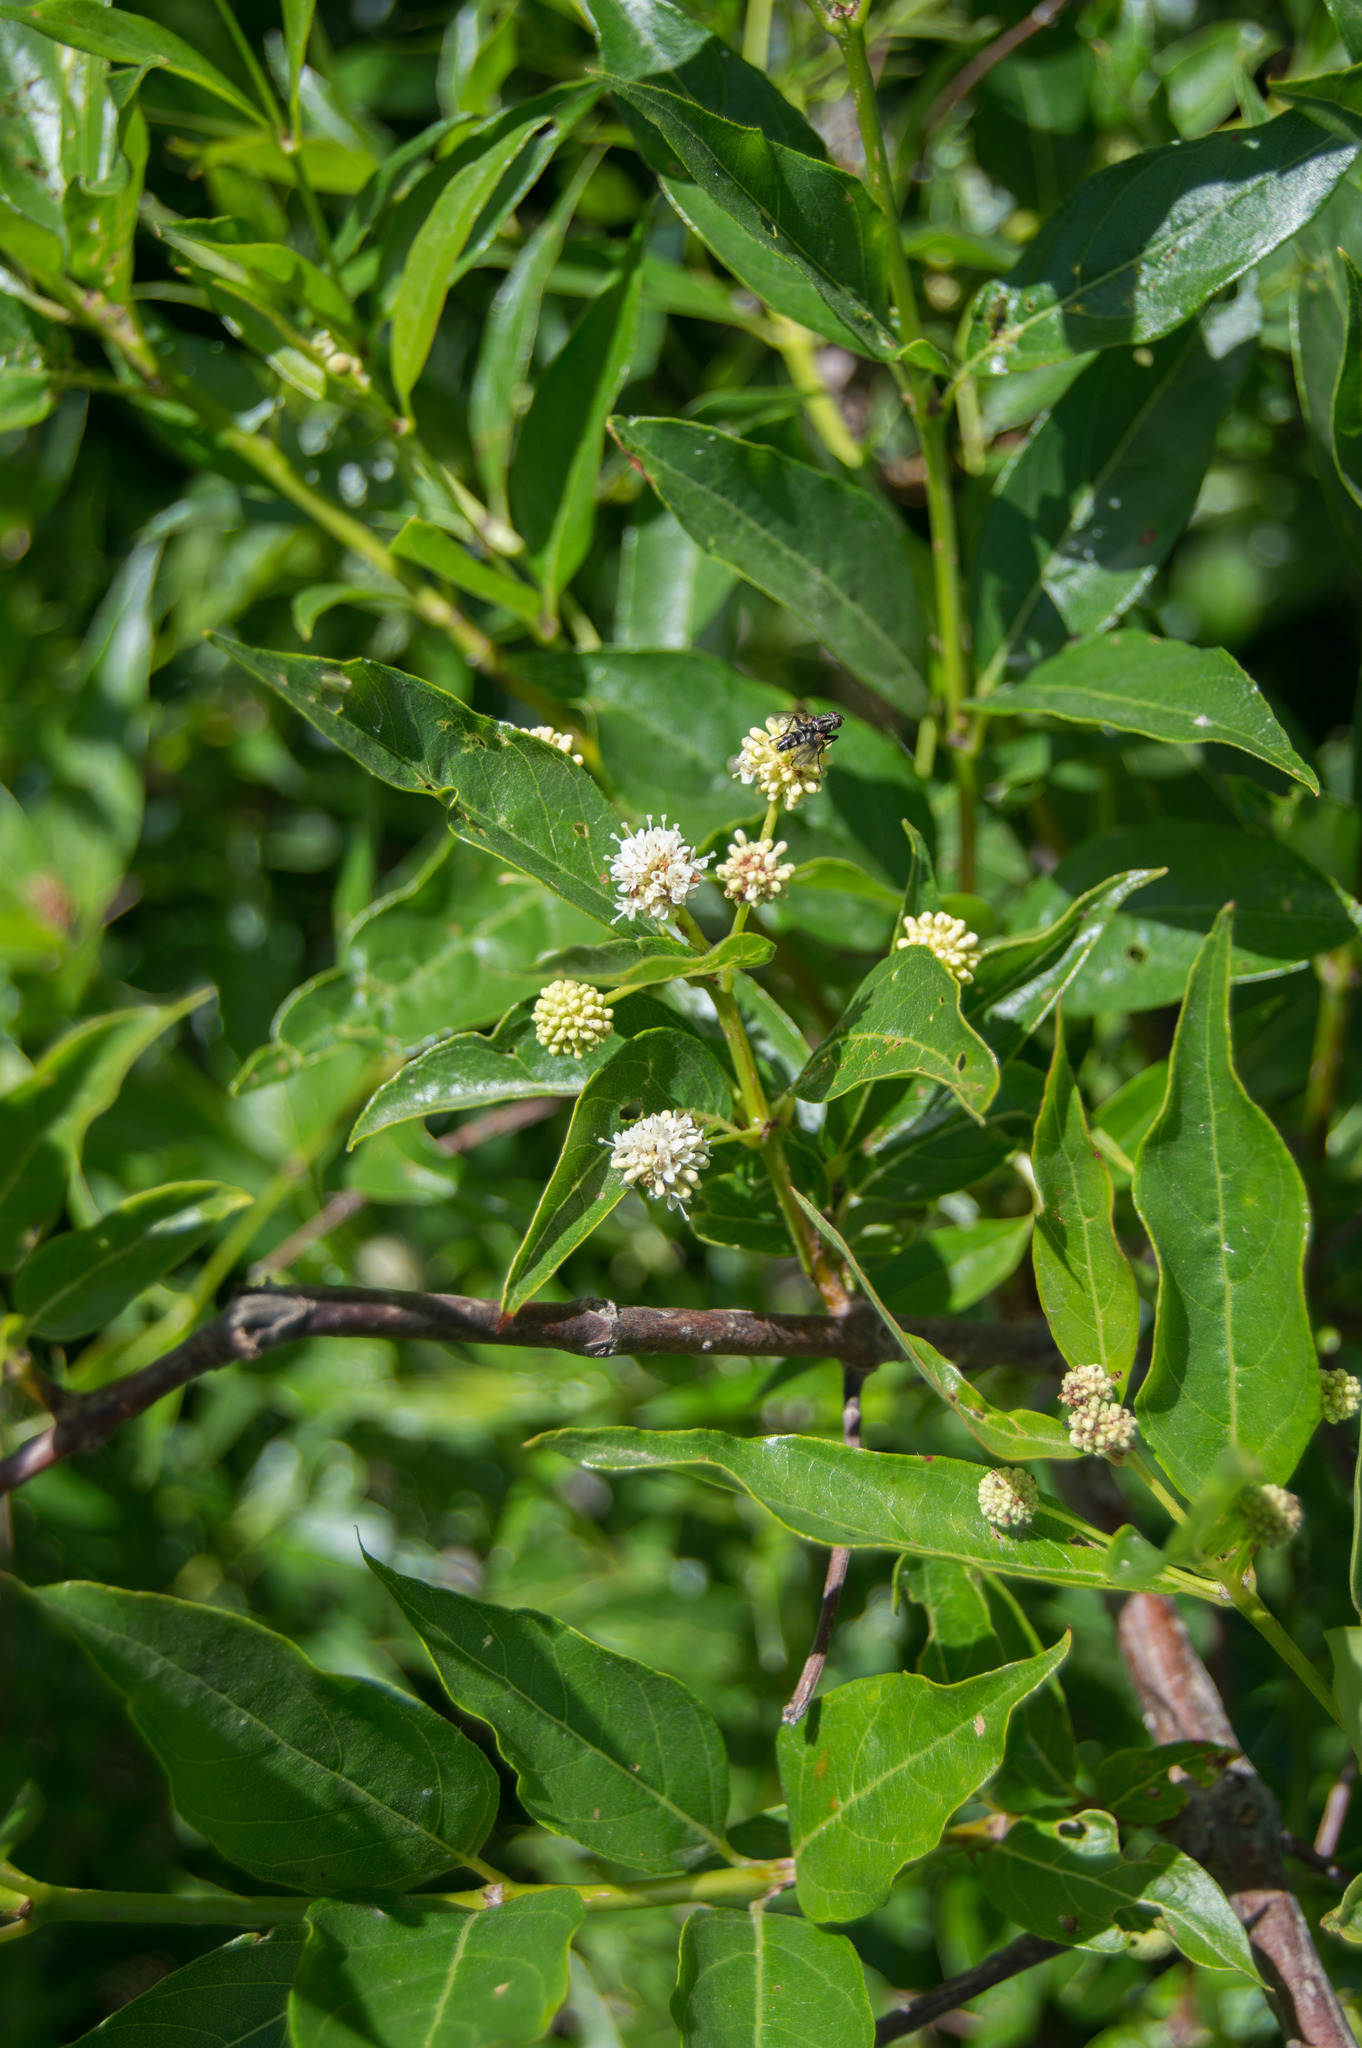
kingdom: Plantae
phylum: Tracheophyta
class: Magnoliopsida
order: Gentianales
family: Rubiaceae
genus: Cephalanthus
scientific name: Cephalanthus glabratus
